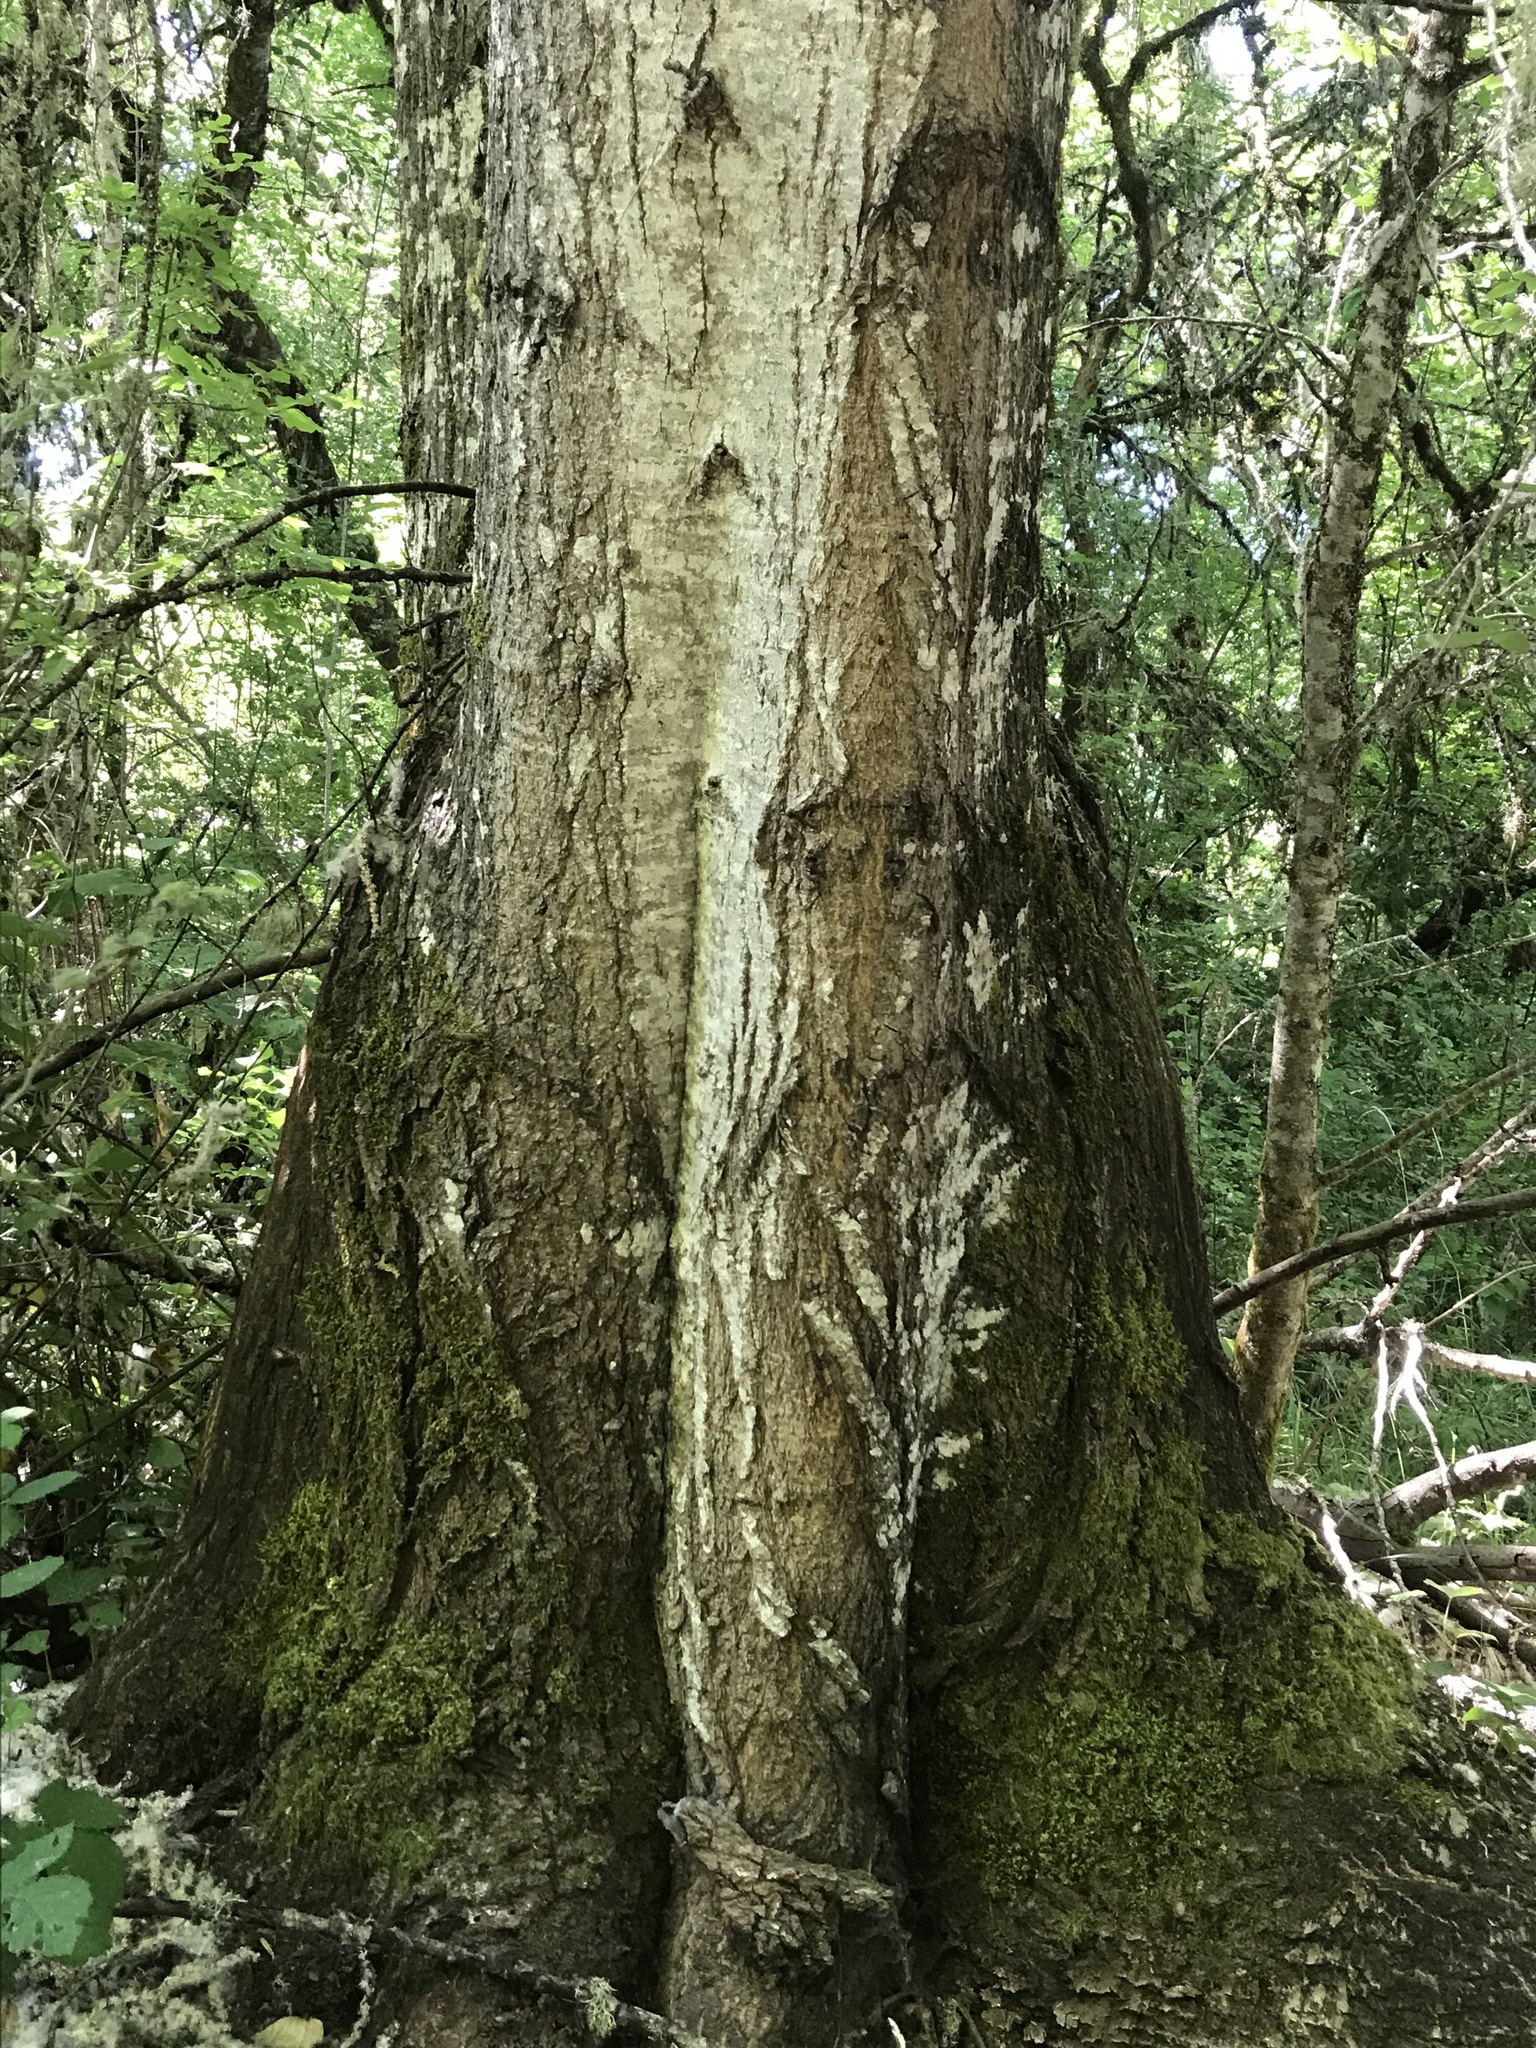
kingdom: Plantae
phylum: Tracheophyta
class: Magnoliopsida
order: Malpighiales
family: Salicaceae
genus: Populus
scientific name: Populus trichocarpa
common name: Black cottonwood
